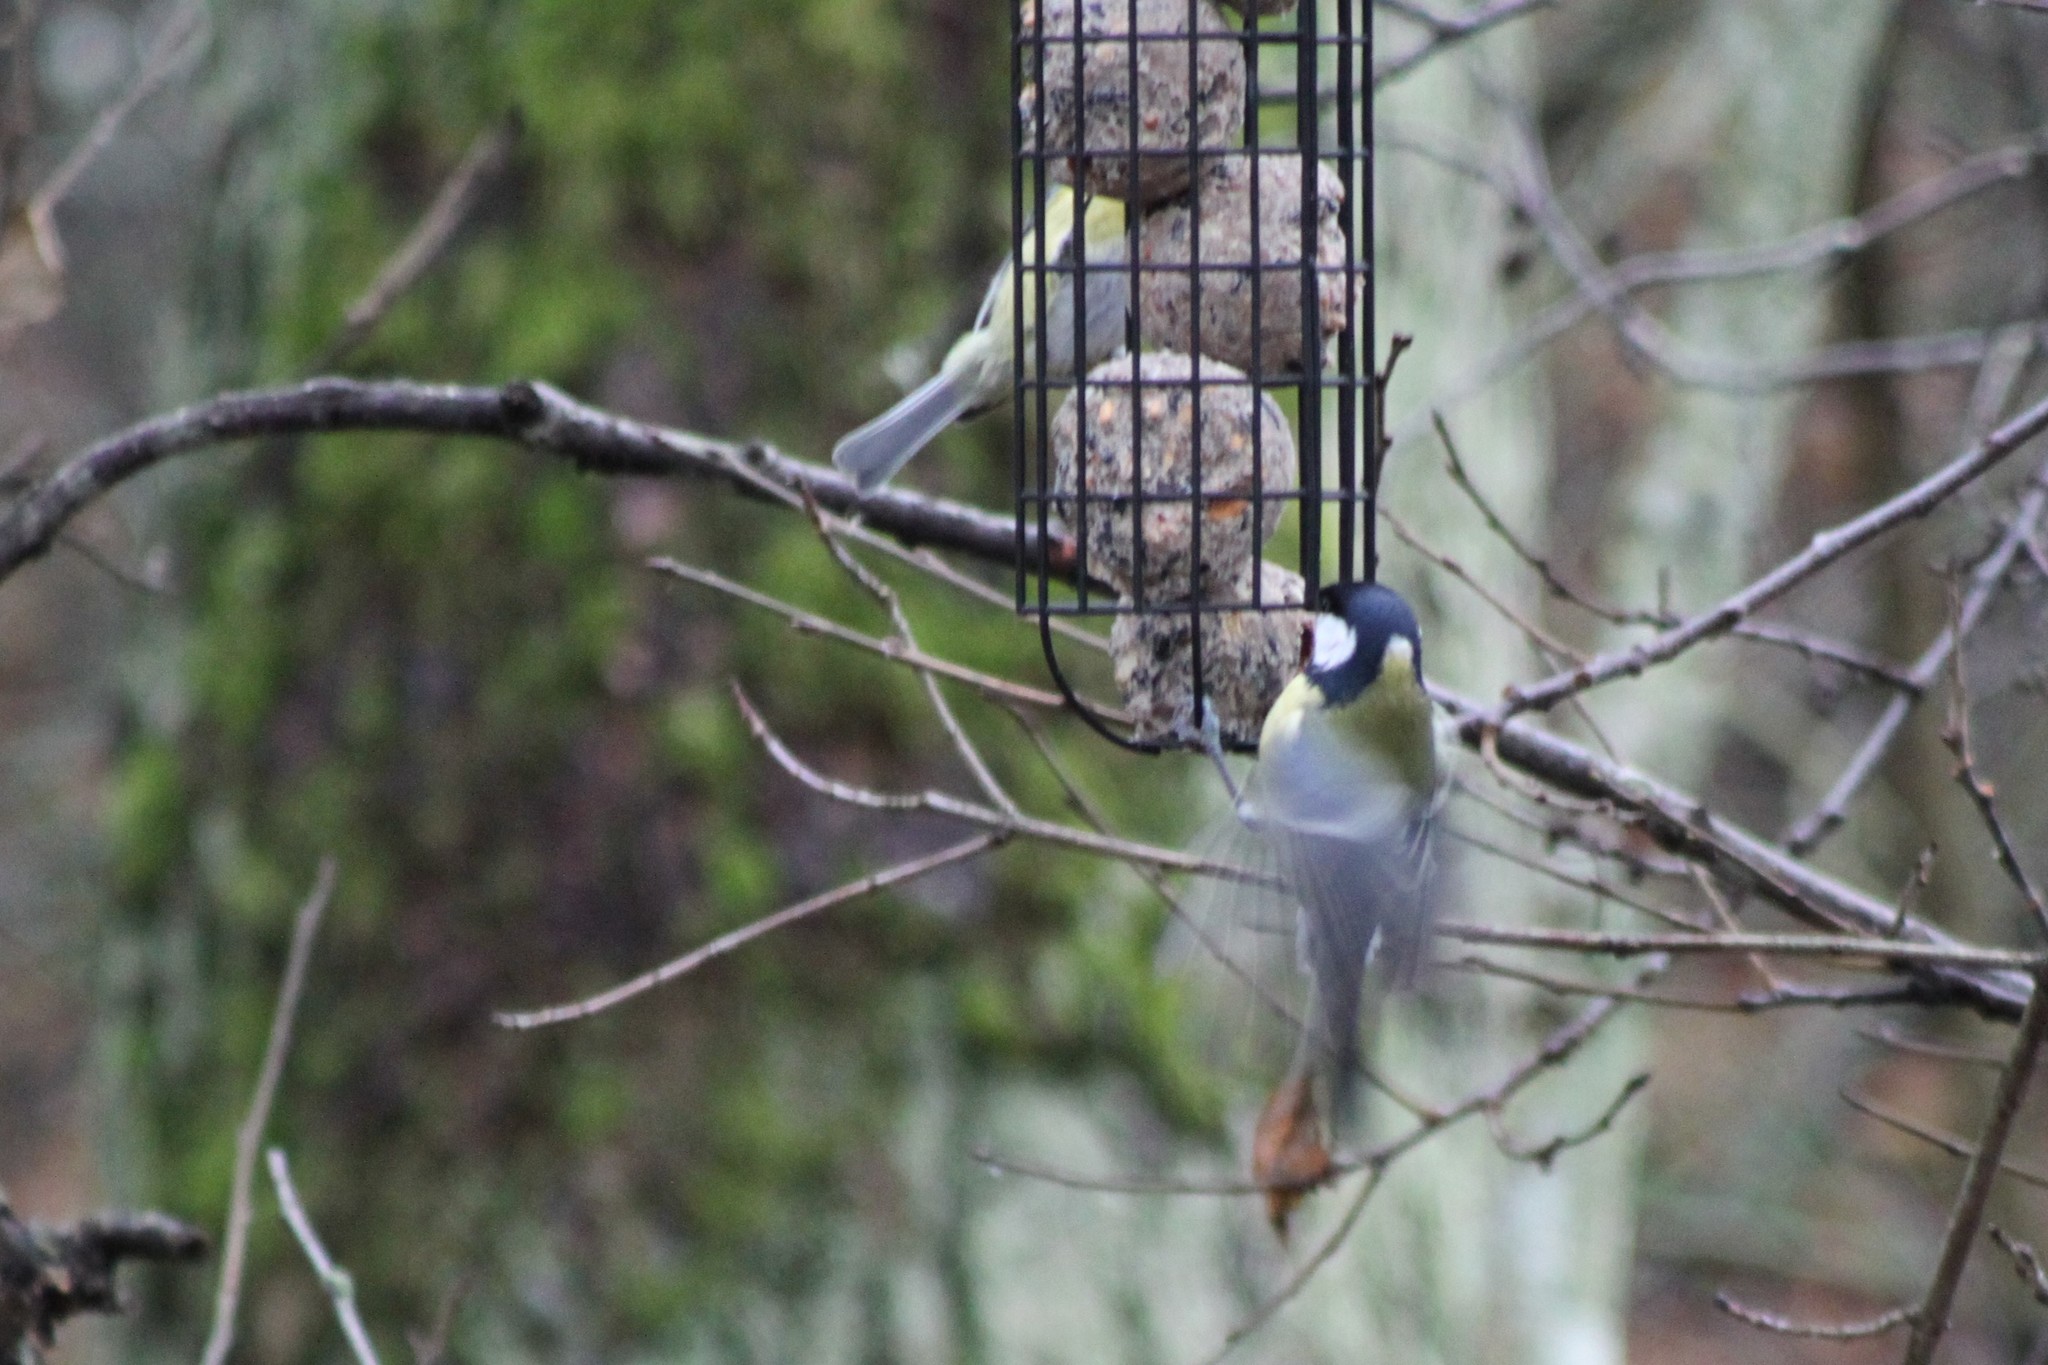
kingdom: Animalia
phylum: Chordata
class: Aves
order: Passeriformes
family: Paridae
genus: Parus
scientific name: Parus major
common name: Great tit
